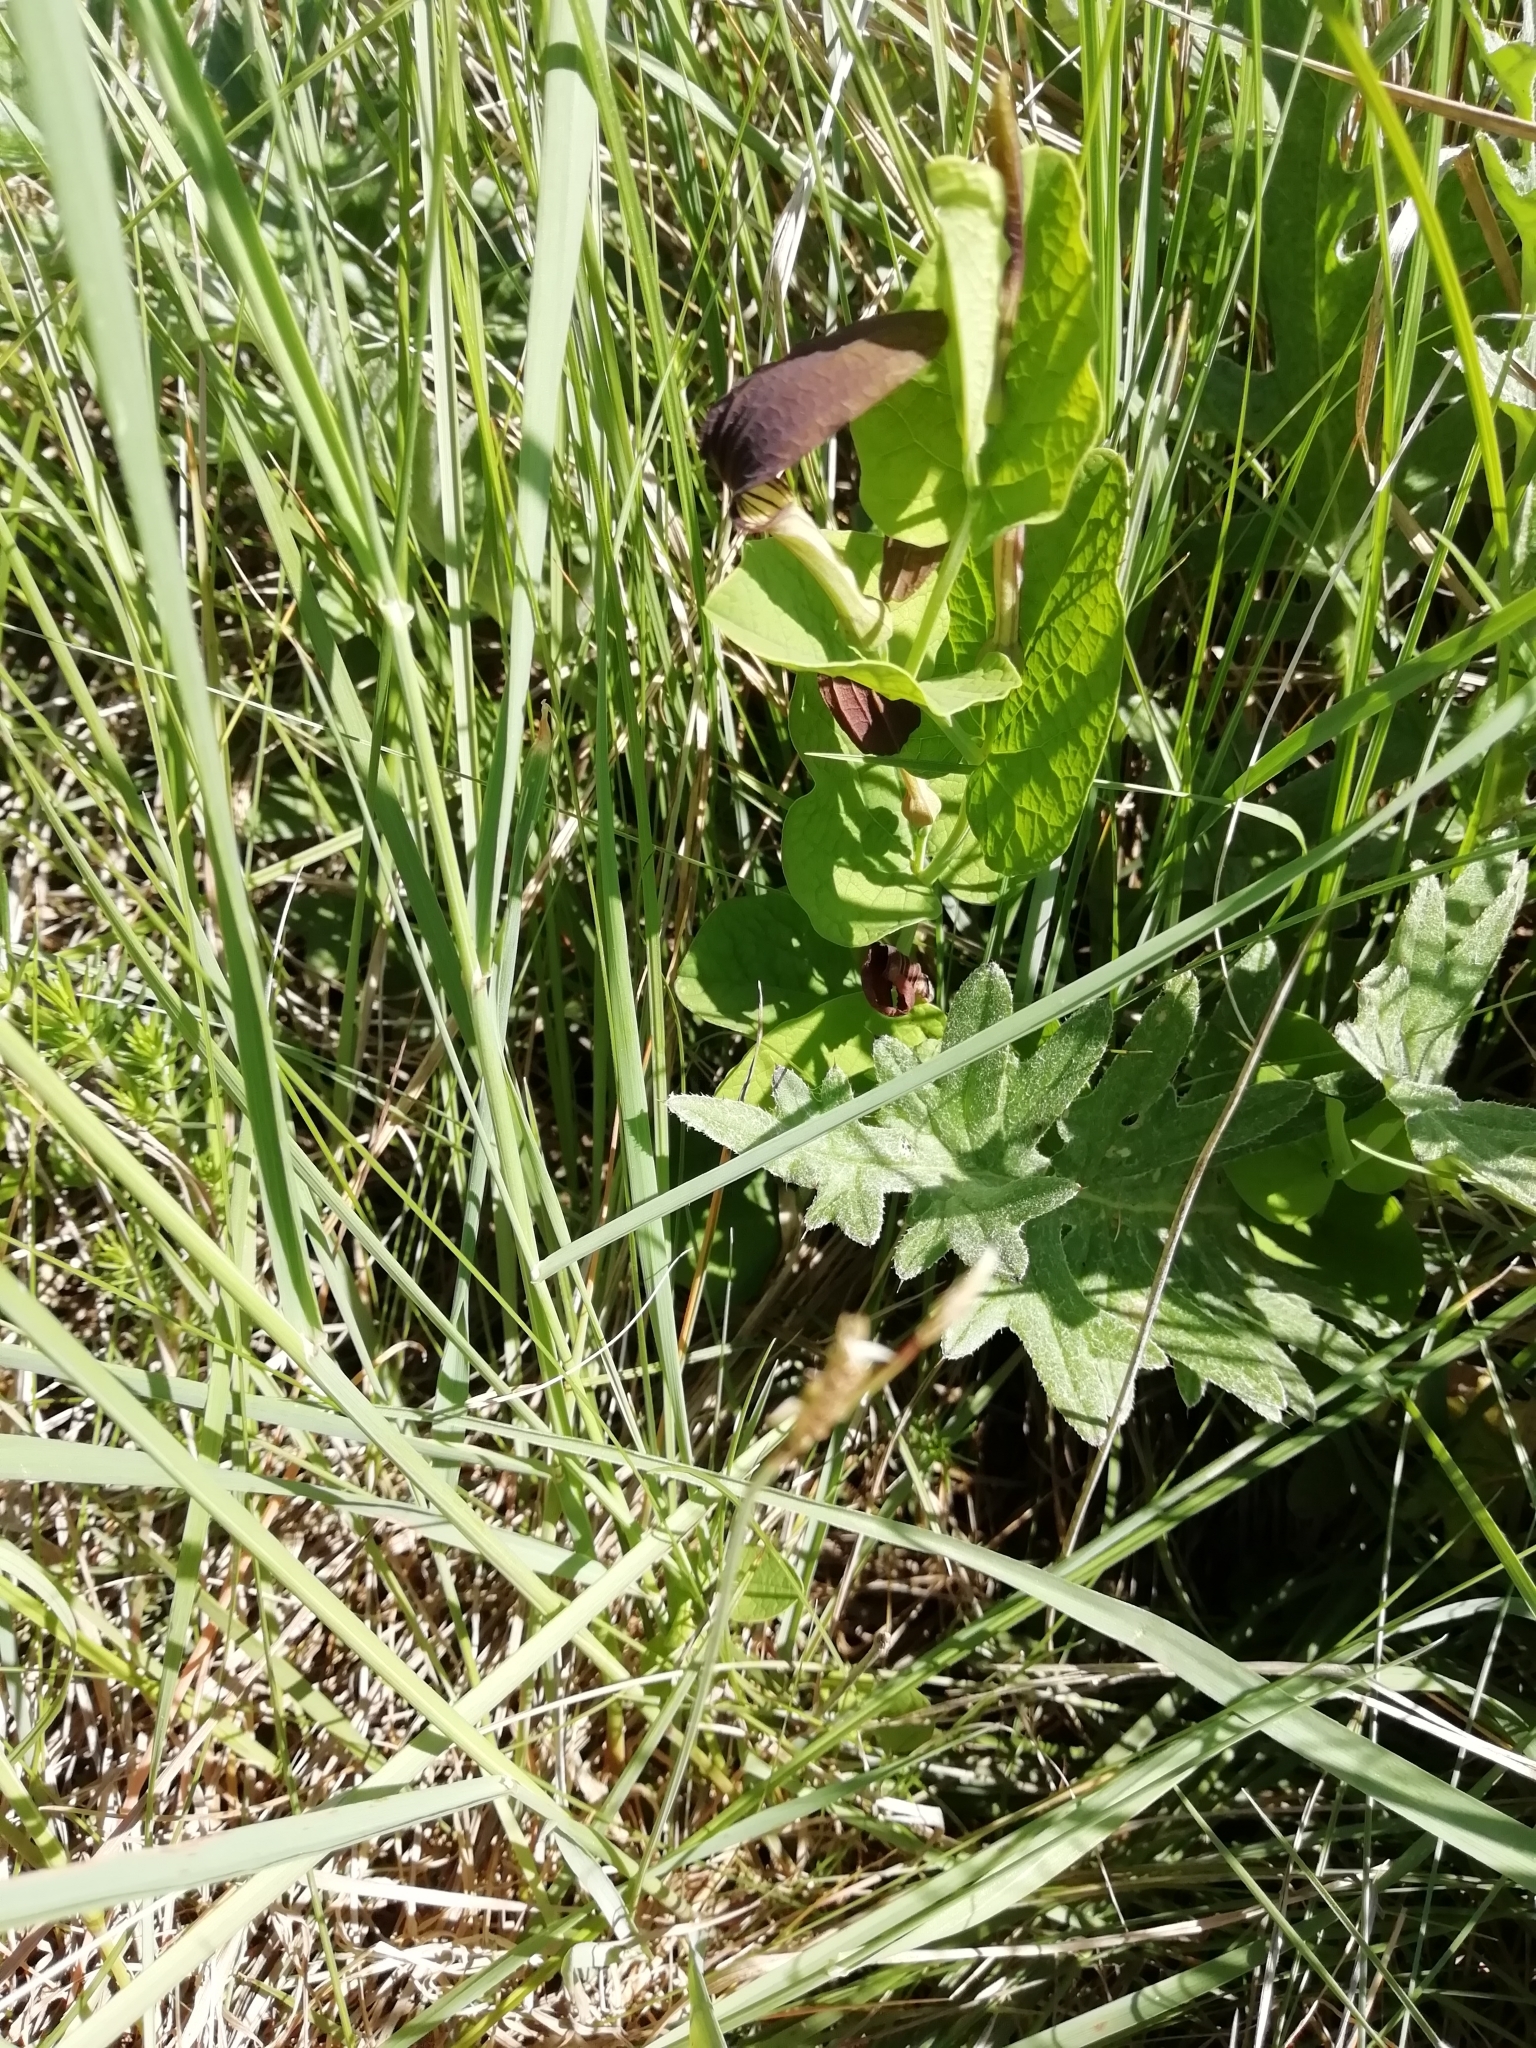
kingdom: Plantae
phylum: Tracheophyta
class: Magnoliopsida
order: Piperales
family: Aristolochiaceae
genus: Aristolochia
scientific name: Aristolochia rotunda
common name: Smearwort
